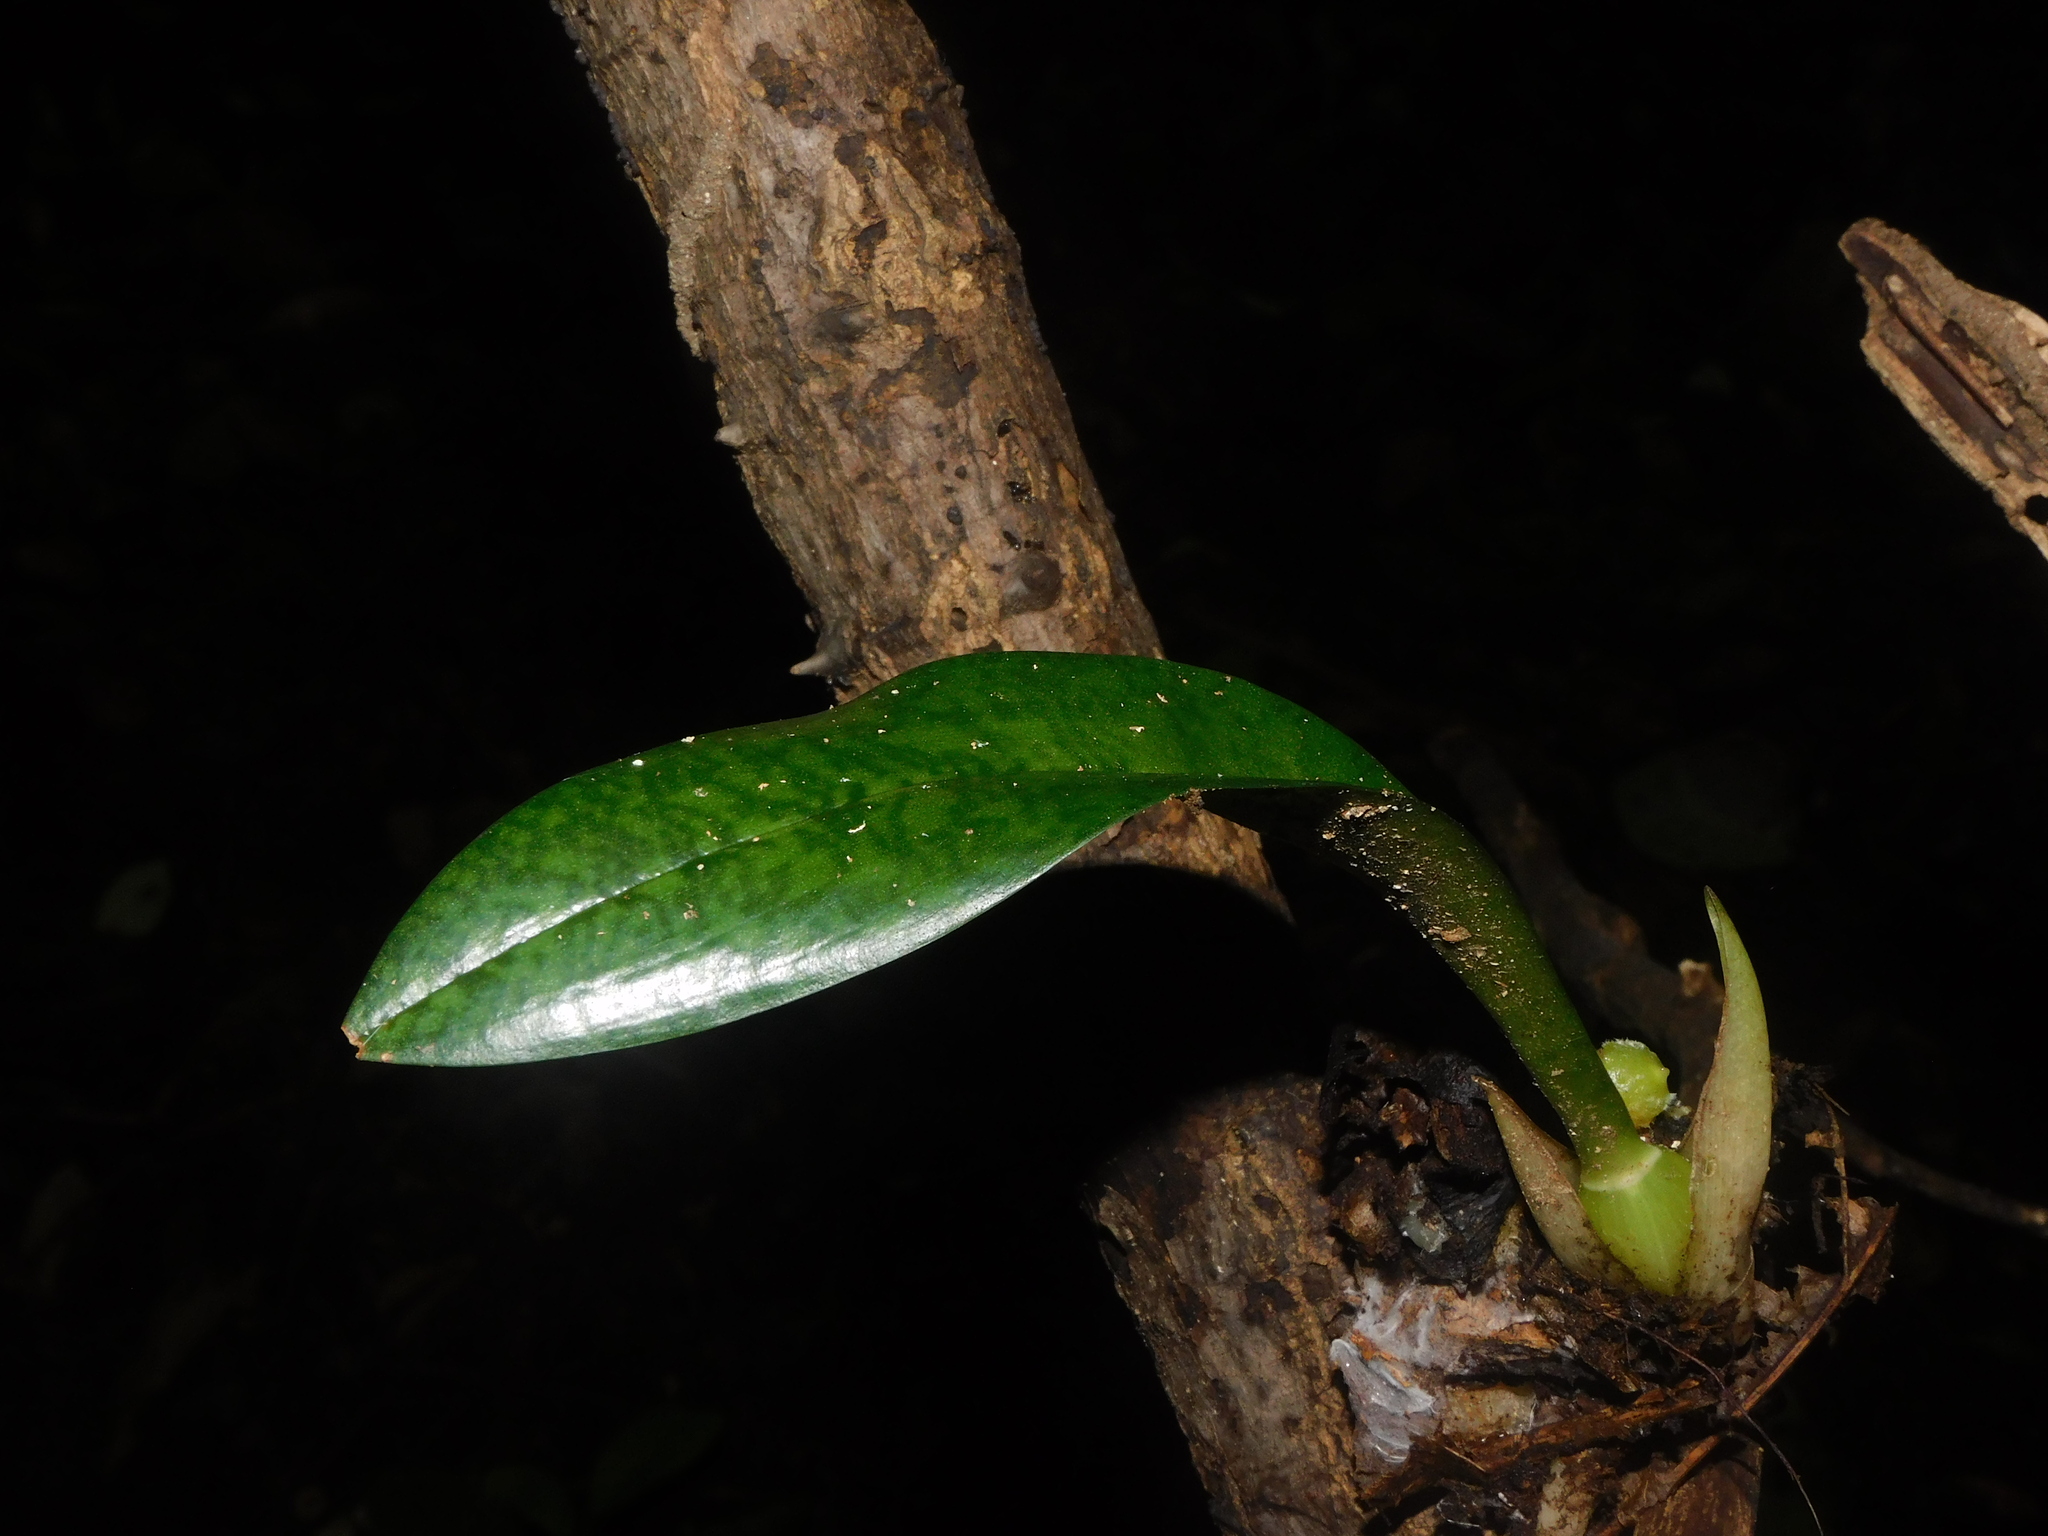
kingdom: Plantae
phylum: Tracheophyta
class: Liliopsida
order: Asparagales
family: Orchidaceae
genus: Eulophia
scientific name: Eulophia maculata
